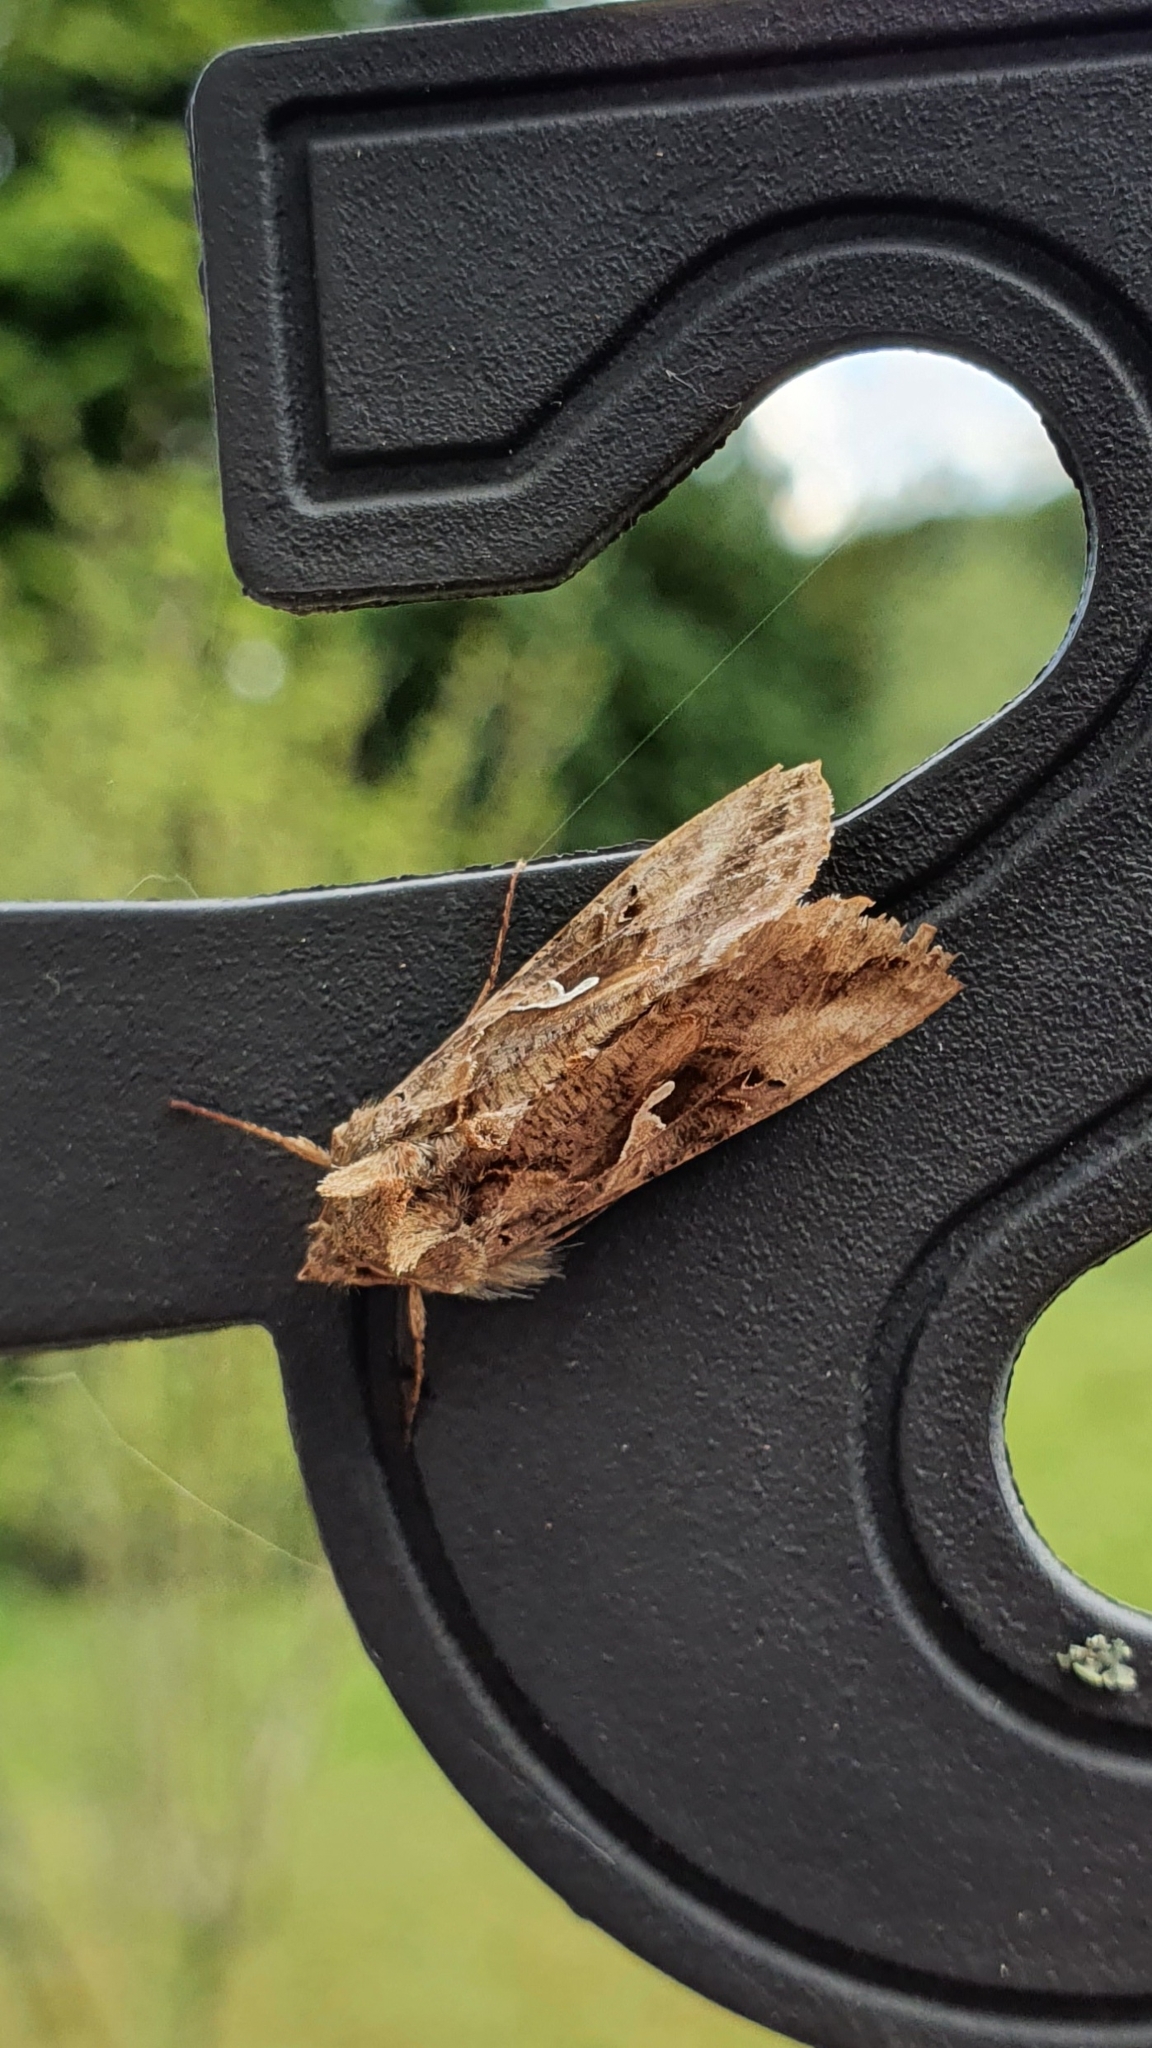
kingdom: Animalia
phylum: Arthropoda
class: Insecta
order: Lepidoptera
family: Noctuidae
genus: Autographa
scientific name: Autographa gamma
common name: Silver y
